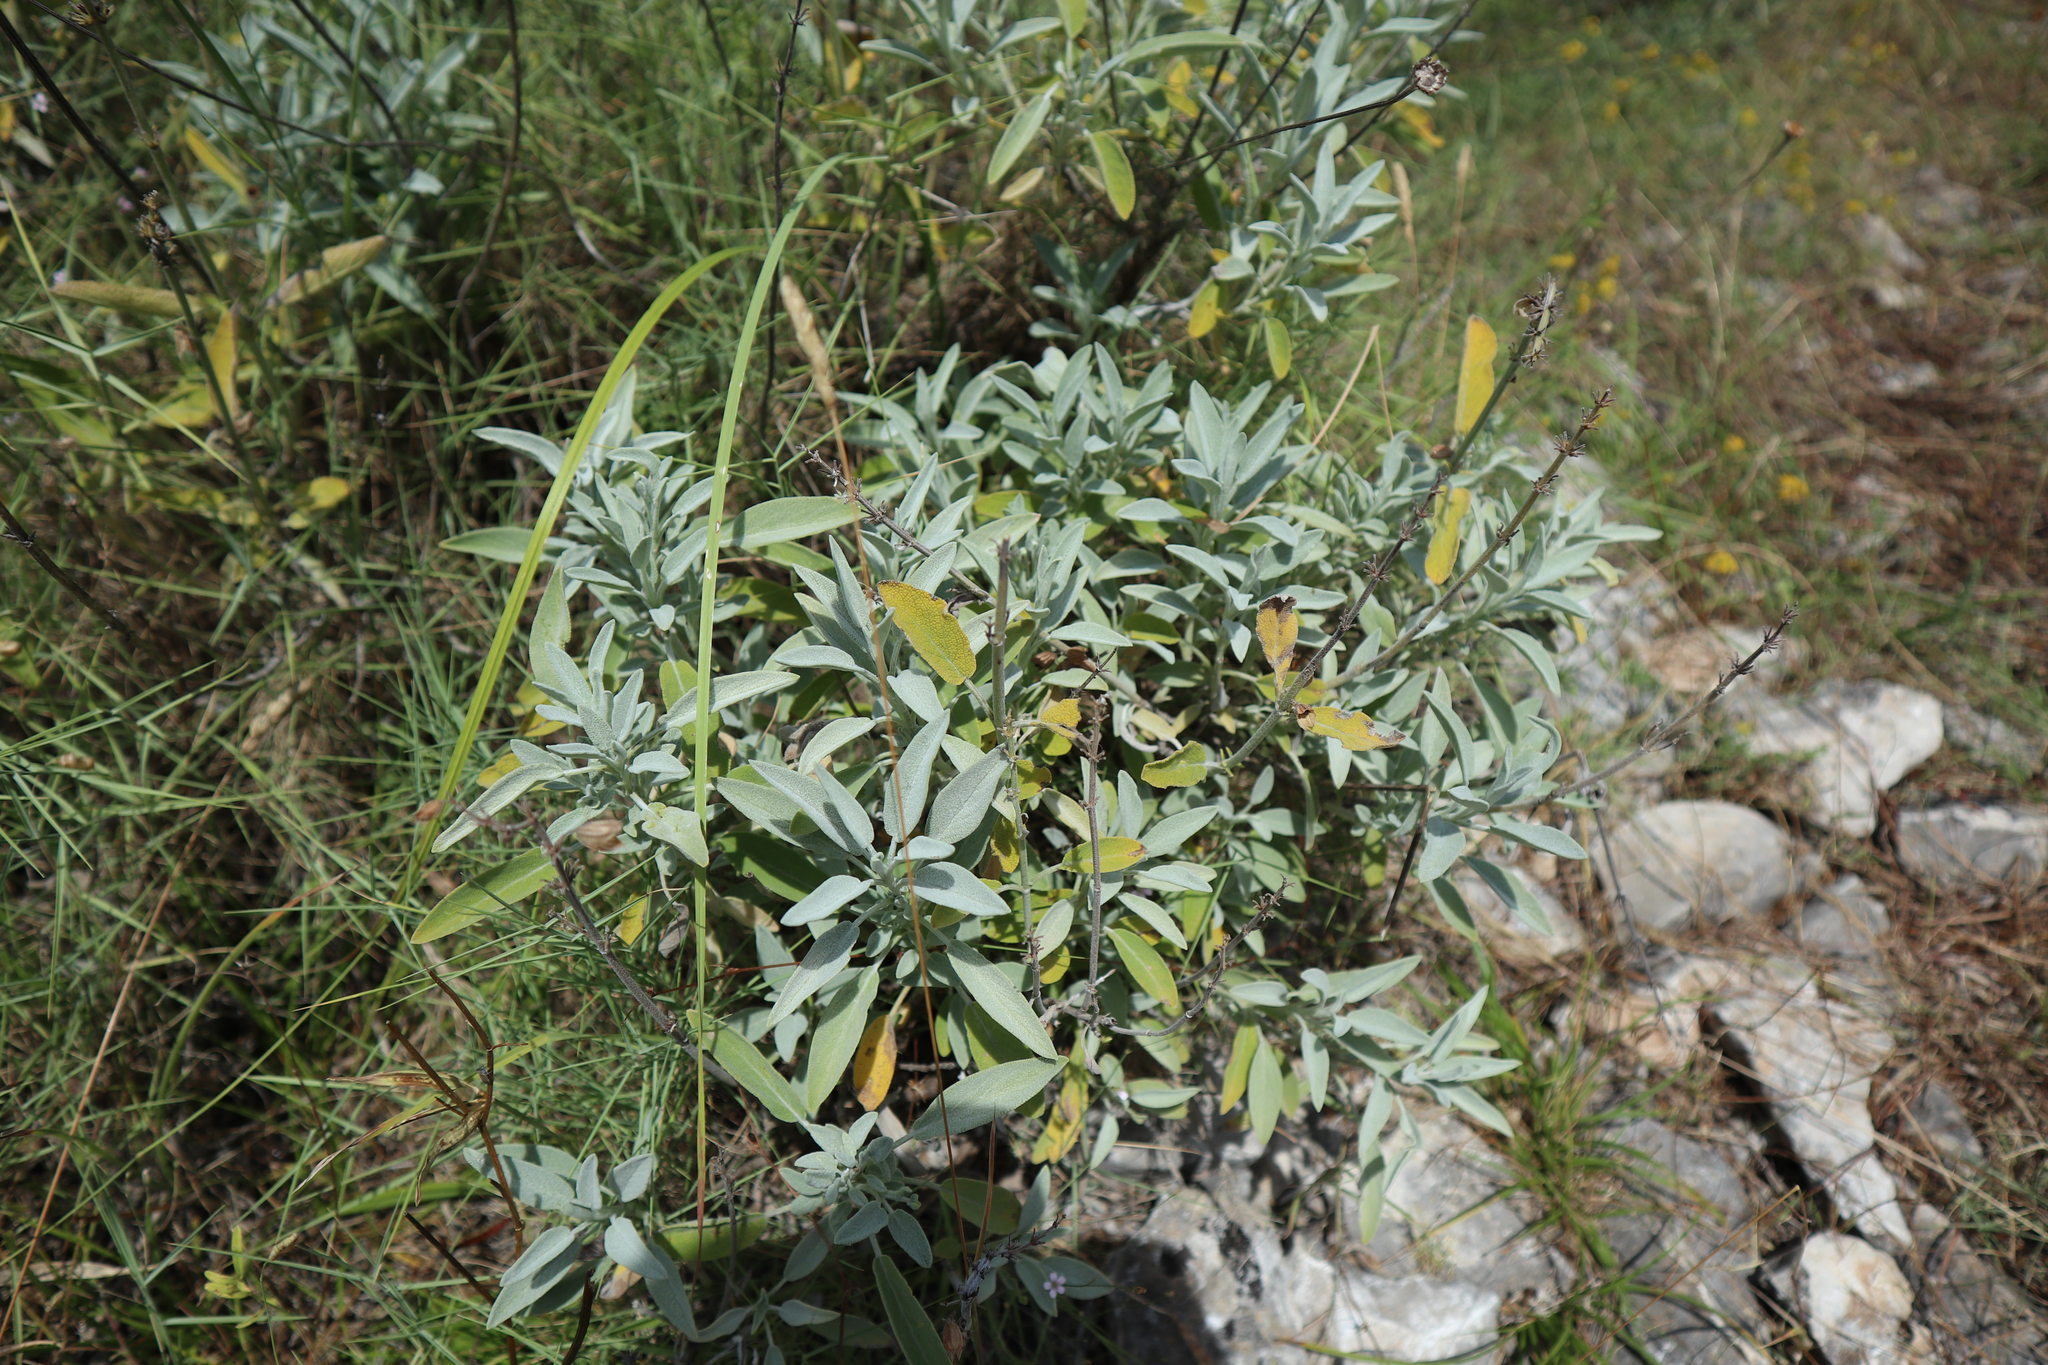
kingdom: Plantae
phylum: Tracheophyta
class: Magnoliopsida
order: Lamiales
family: Lamiaceae
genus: Salvia
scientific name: Salvia officinalis
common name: Sage
